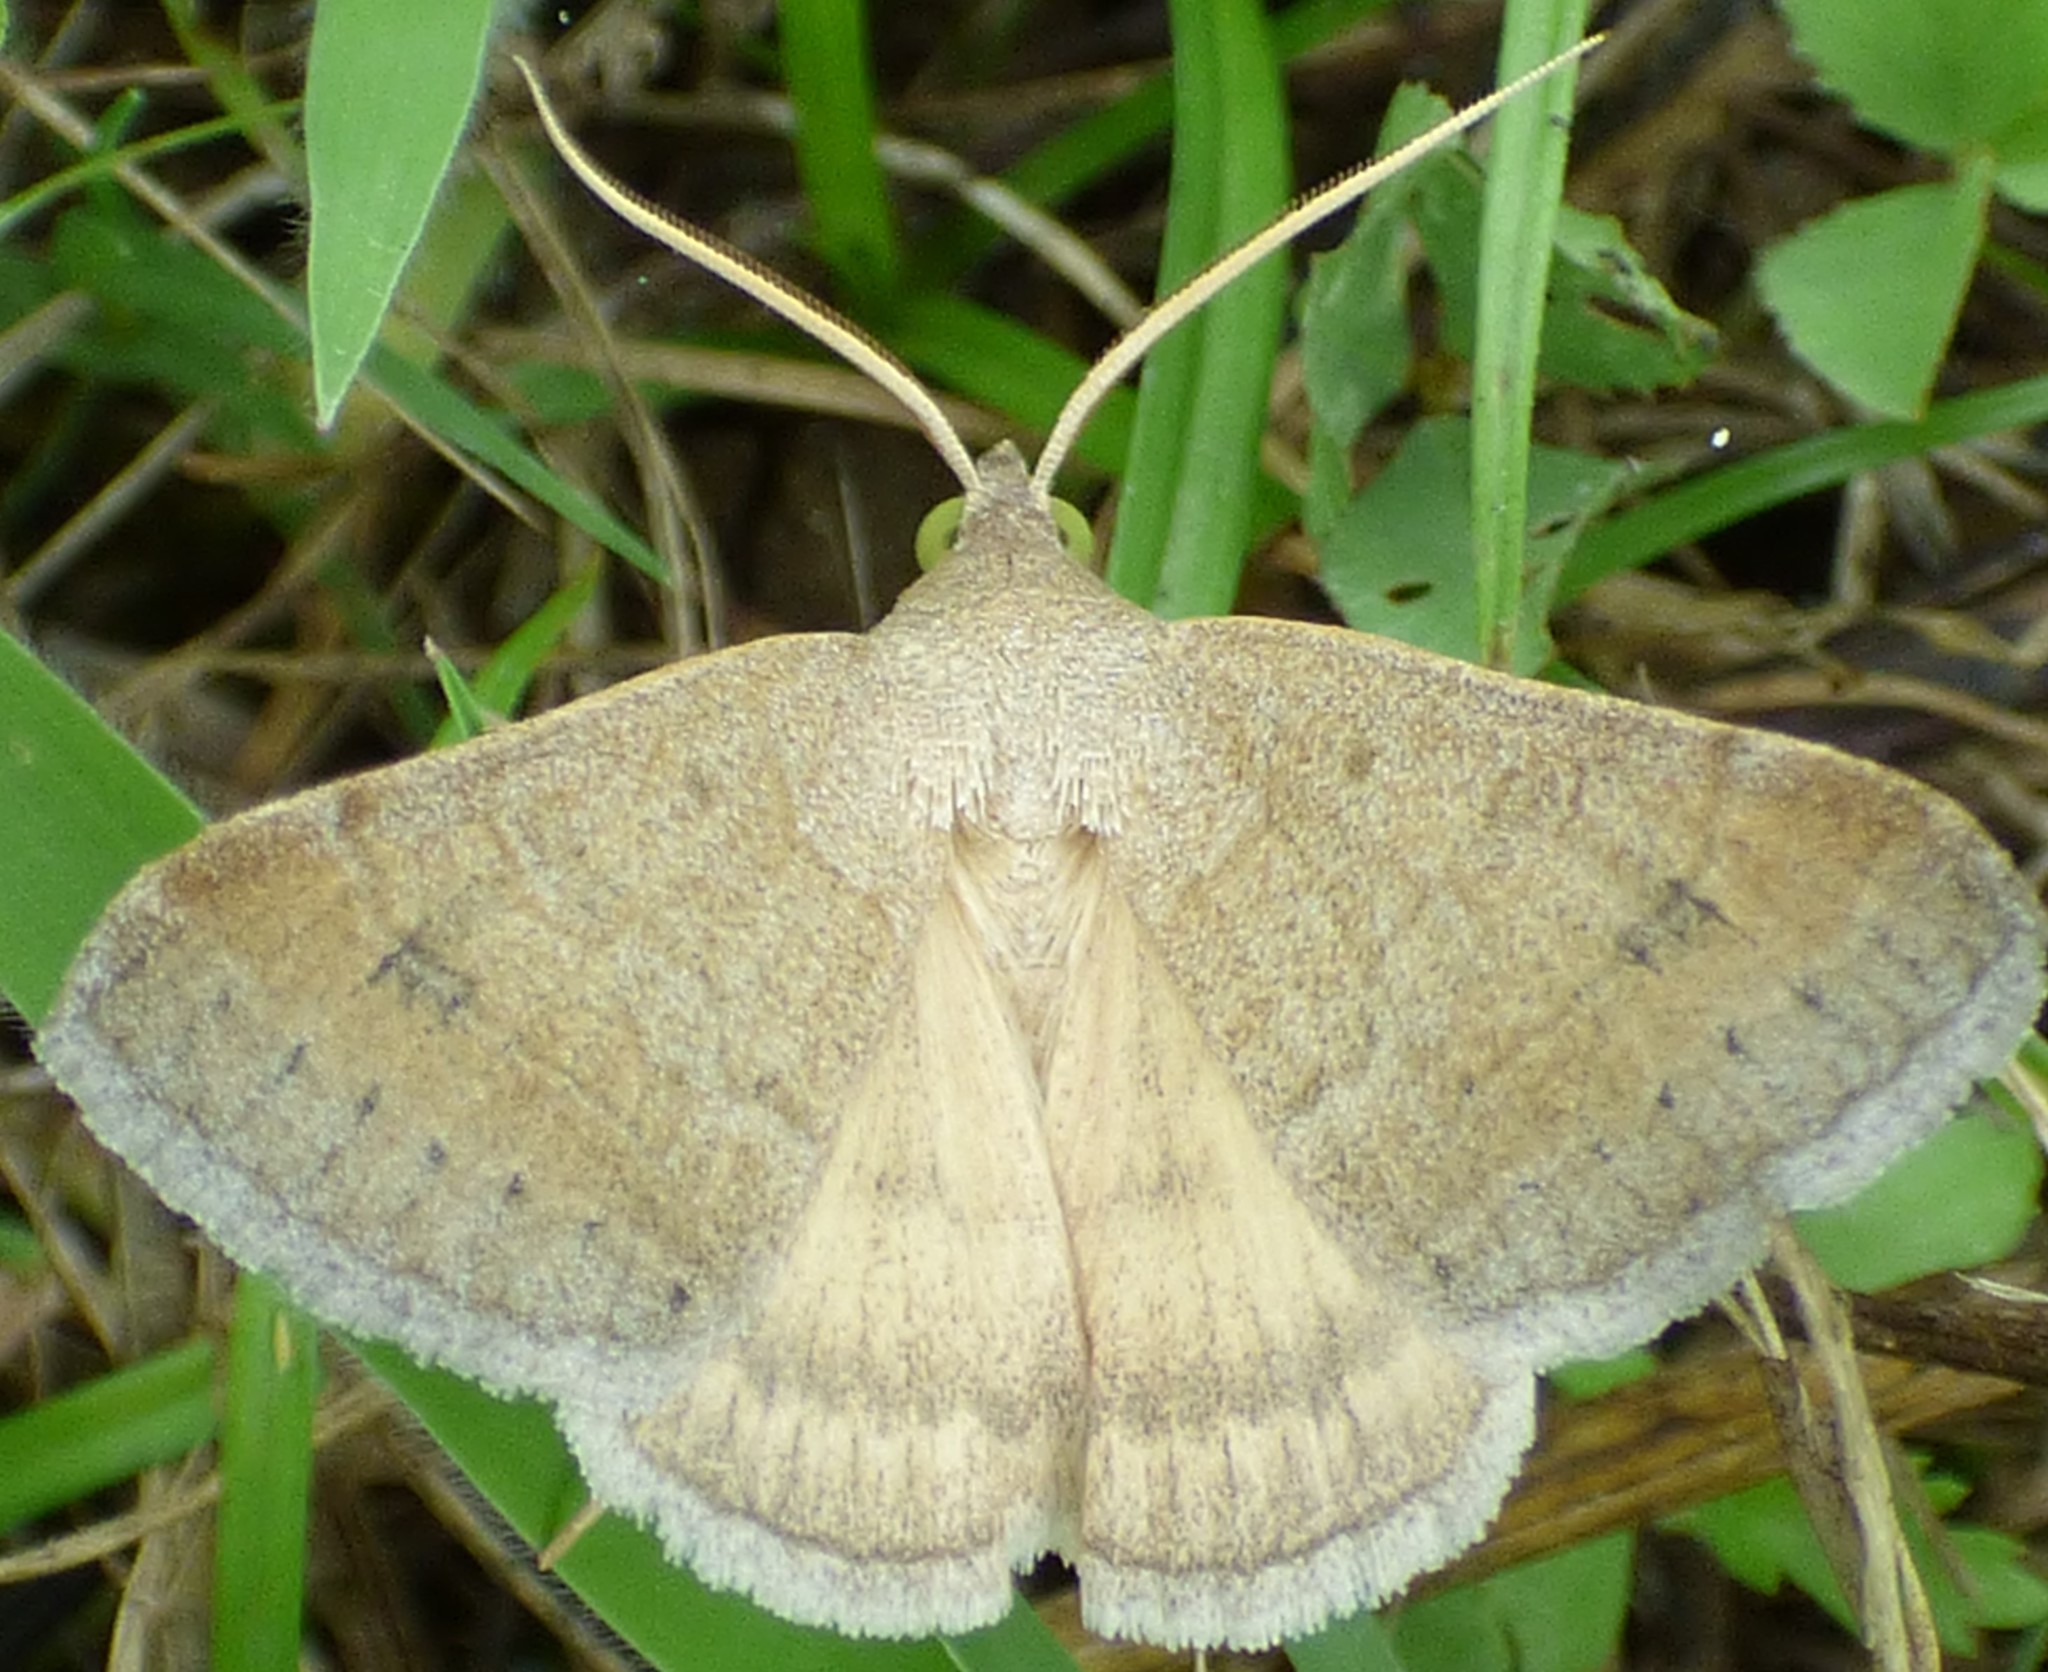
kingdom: Animalia
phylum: Arthropoda
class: Insecta
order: Lepidoptera
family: Erebidae
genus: Caenurgia
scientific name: Caenurgia chloropha
